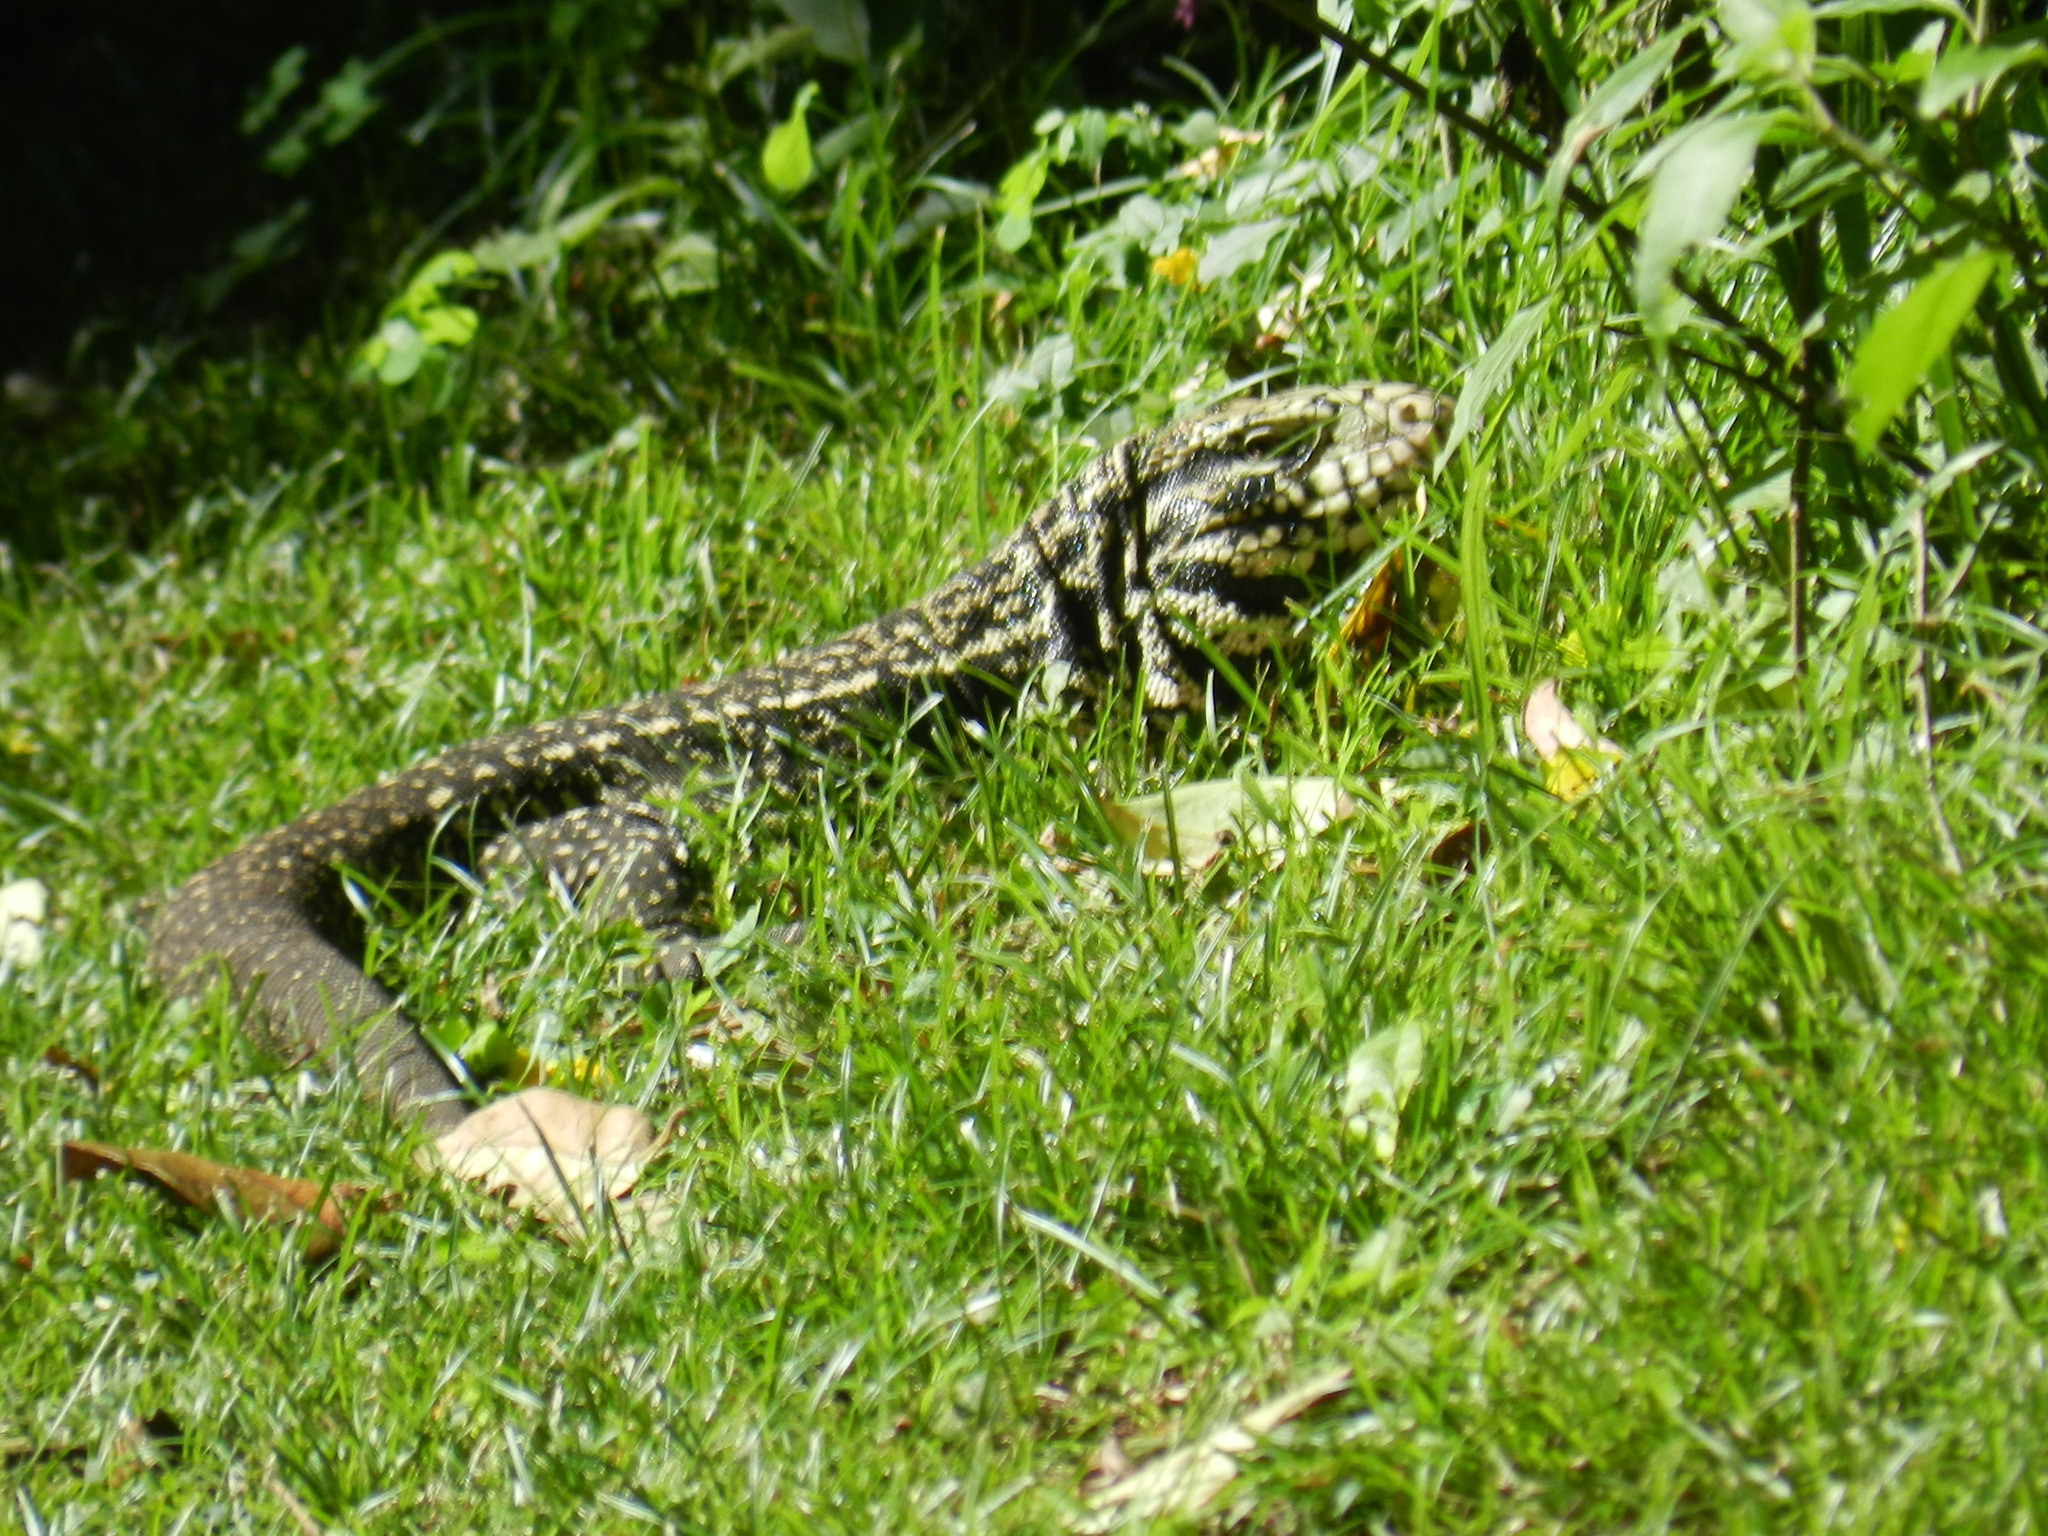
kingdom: Animalia
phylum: Chordata
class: Squamata
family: Teiidae
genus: Salvator
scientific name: Salvator merianae
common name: Argentine black and white tegu
